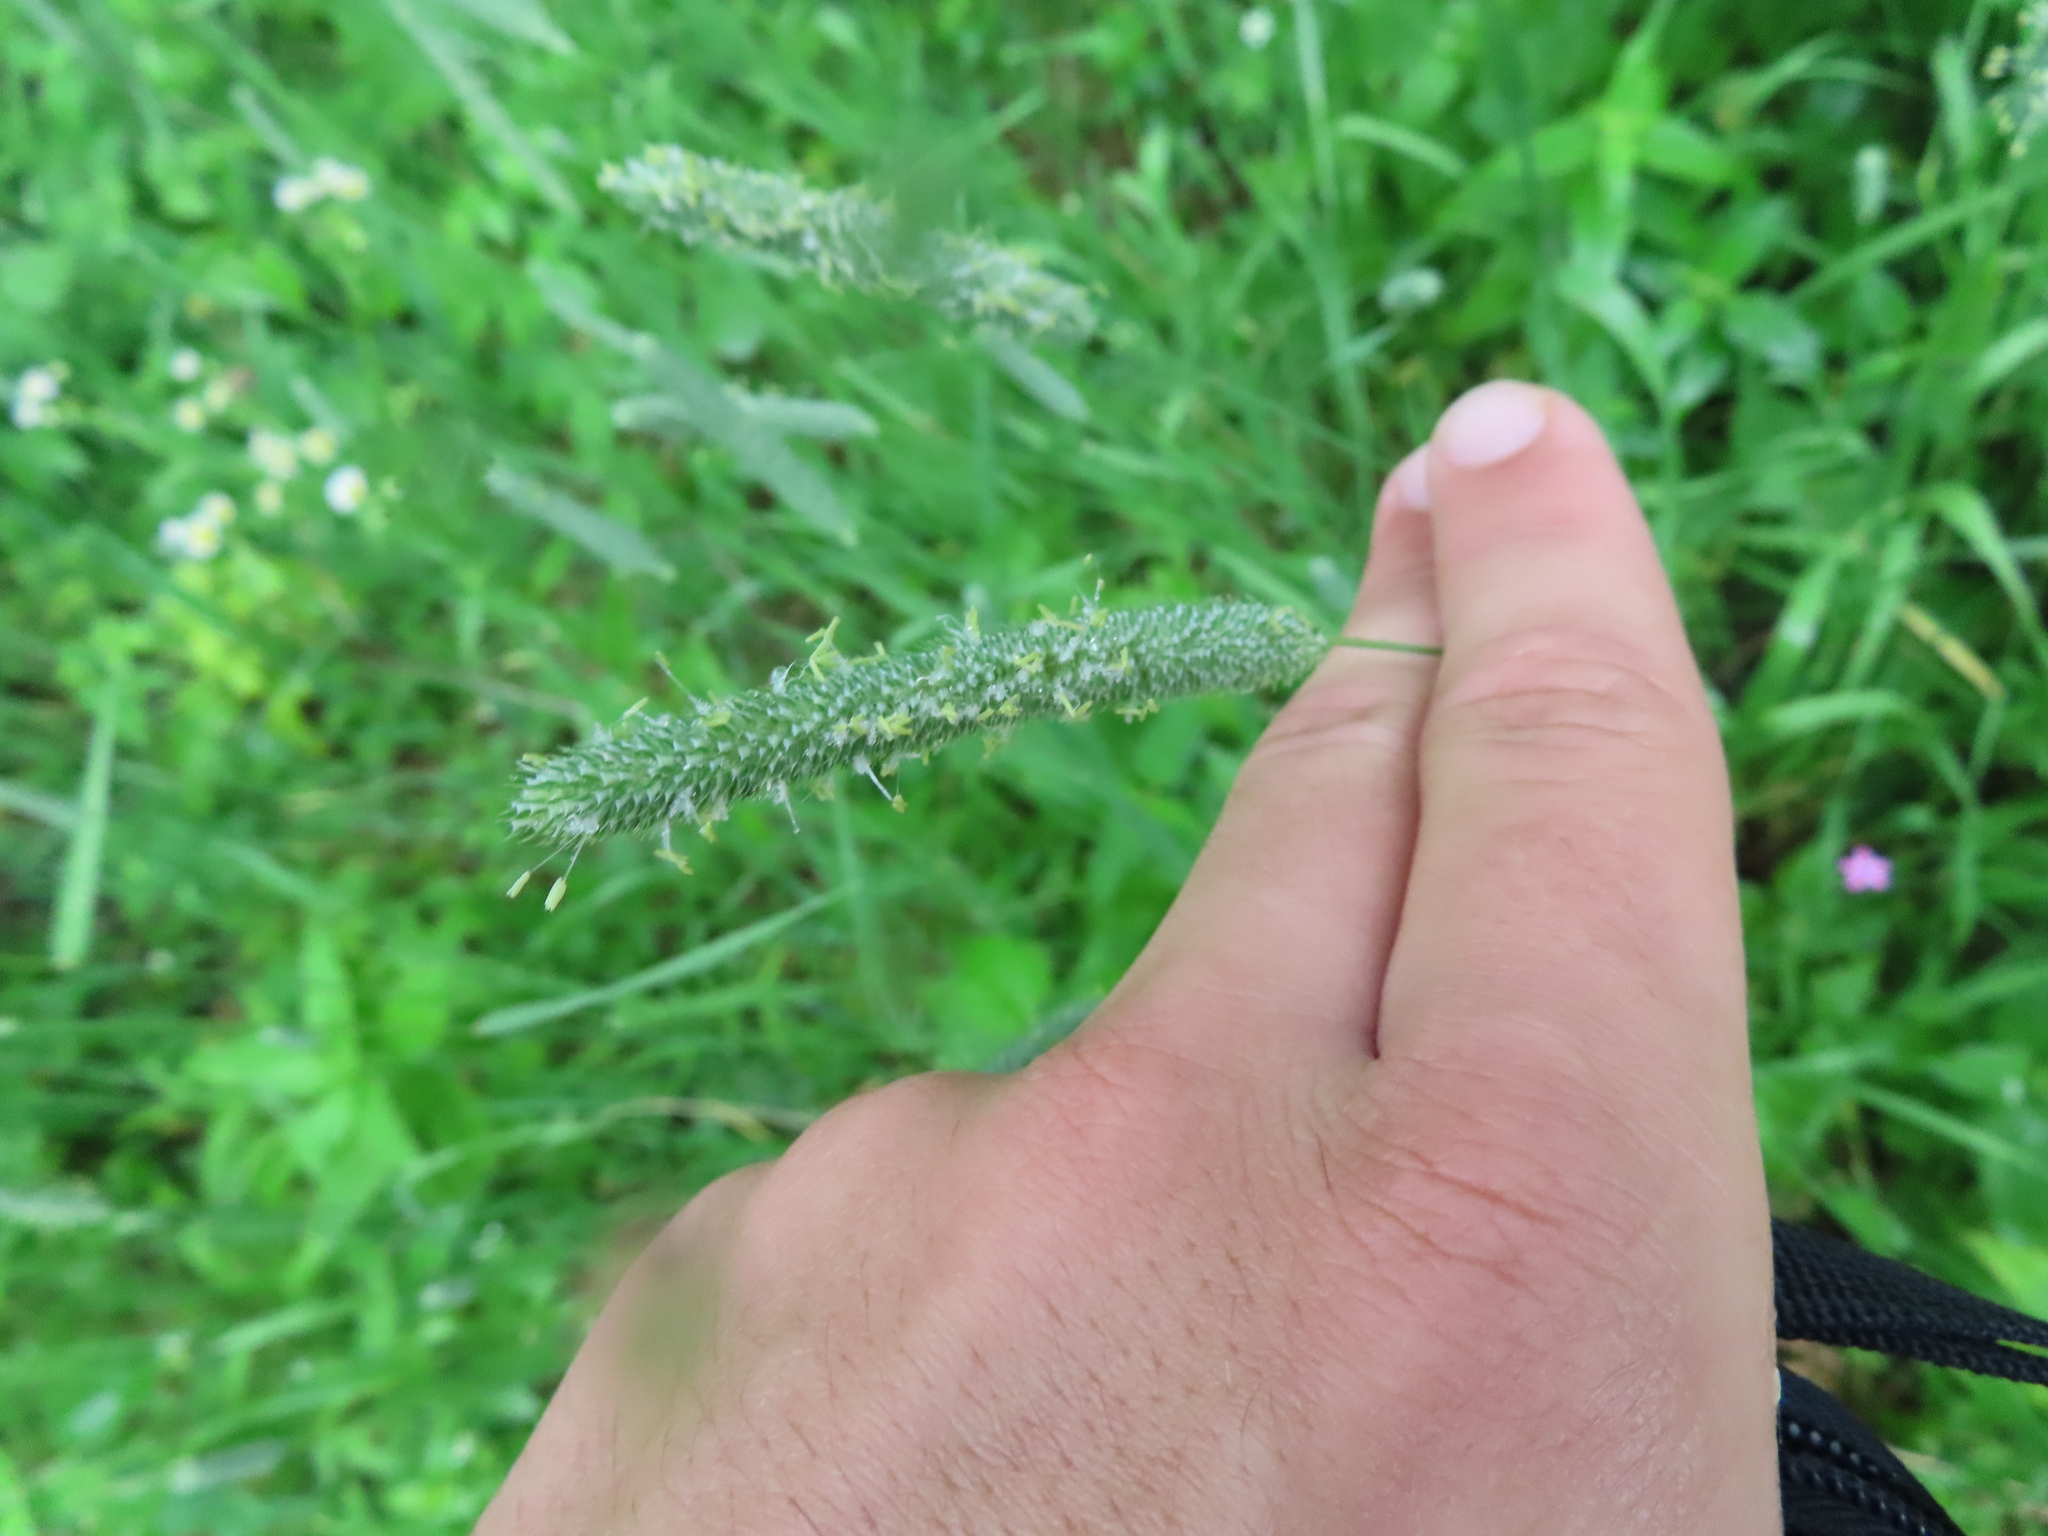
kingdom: Plantae
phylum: Tracheophyta
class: Liliopsida
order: Poales
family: Poaceae
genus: Phleum
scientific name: Phleum pratense
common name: Timothy grass
